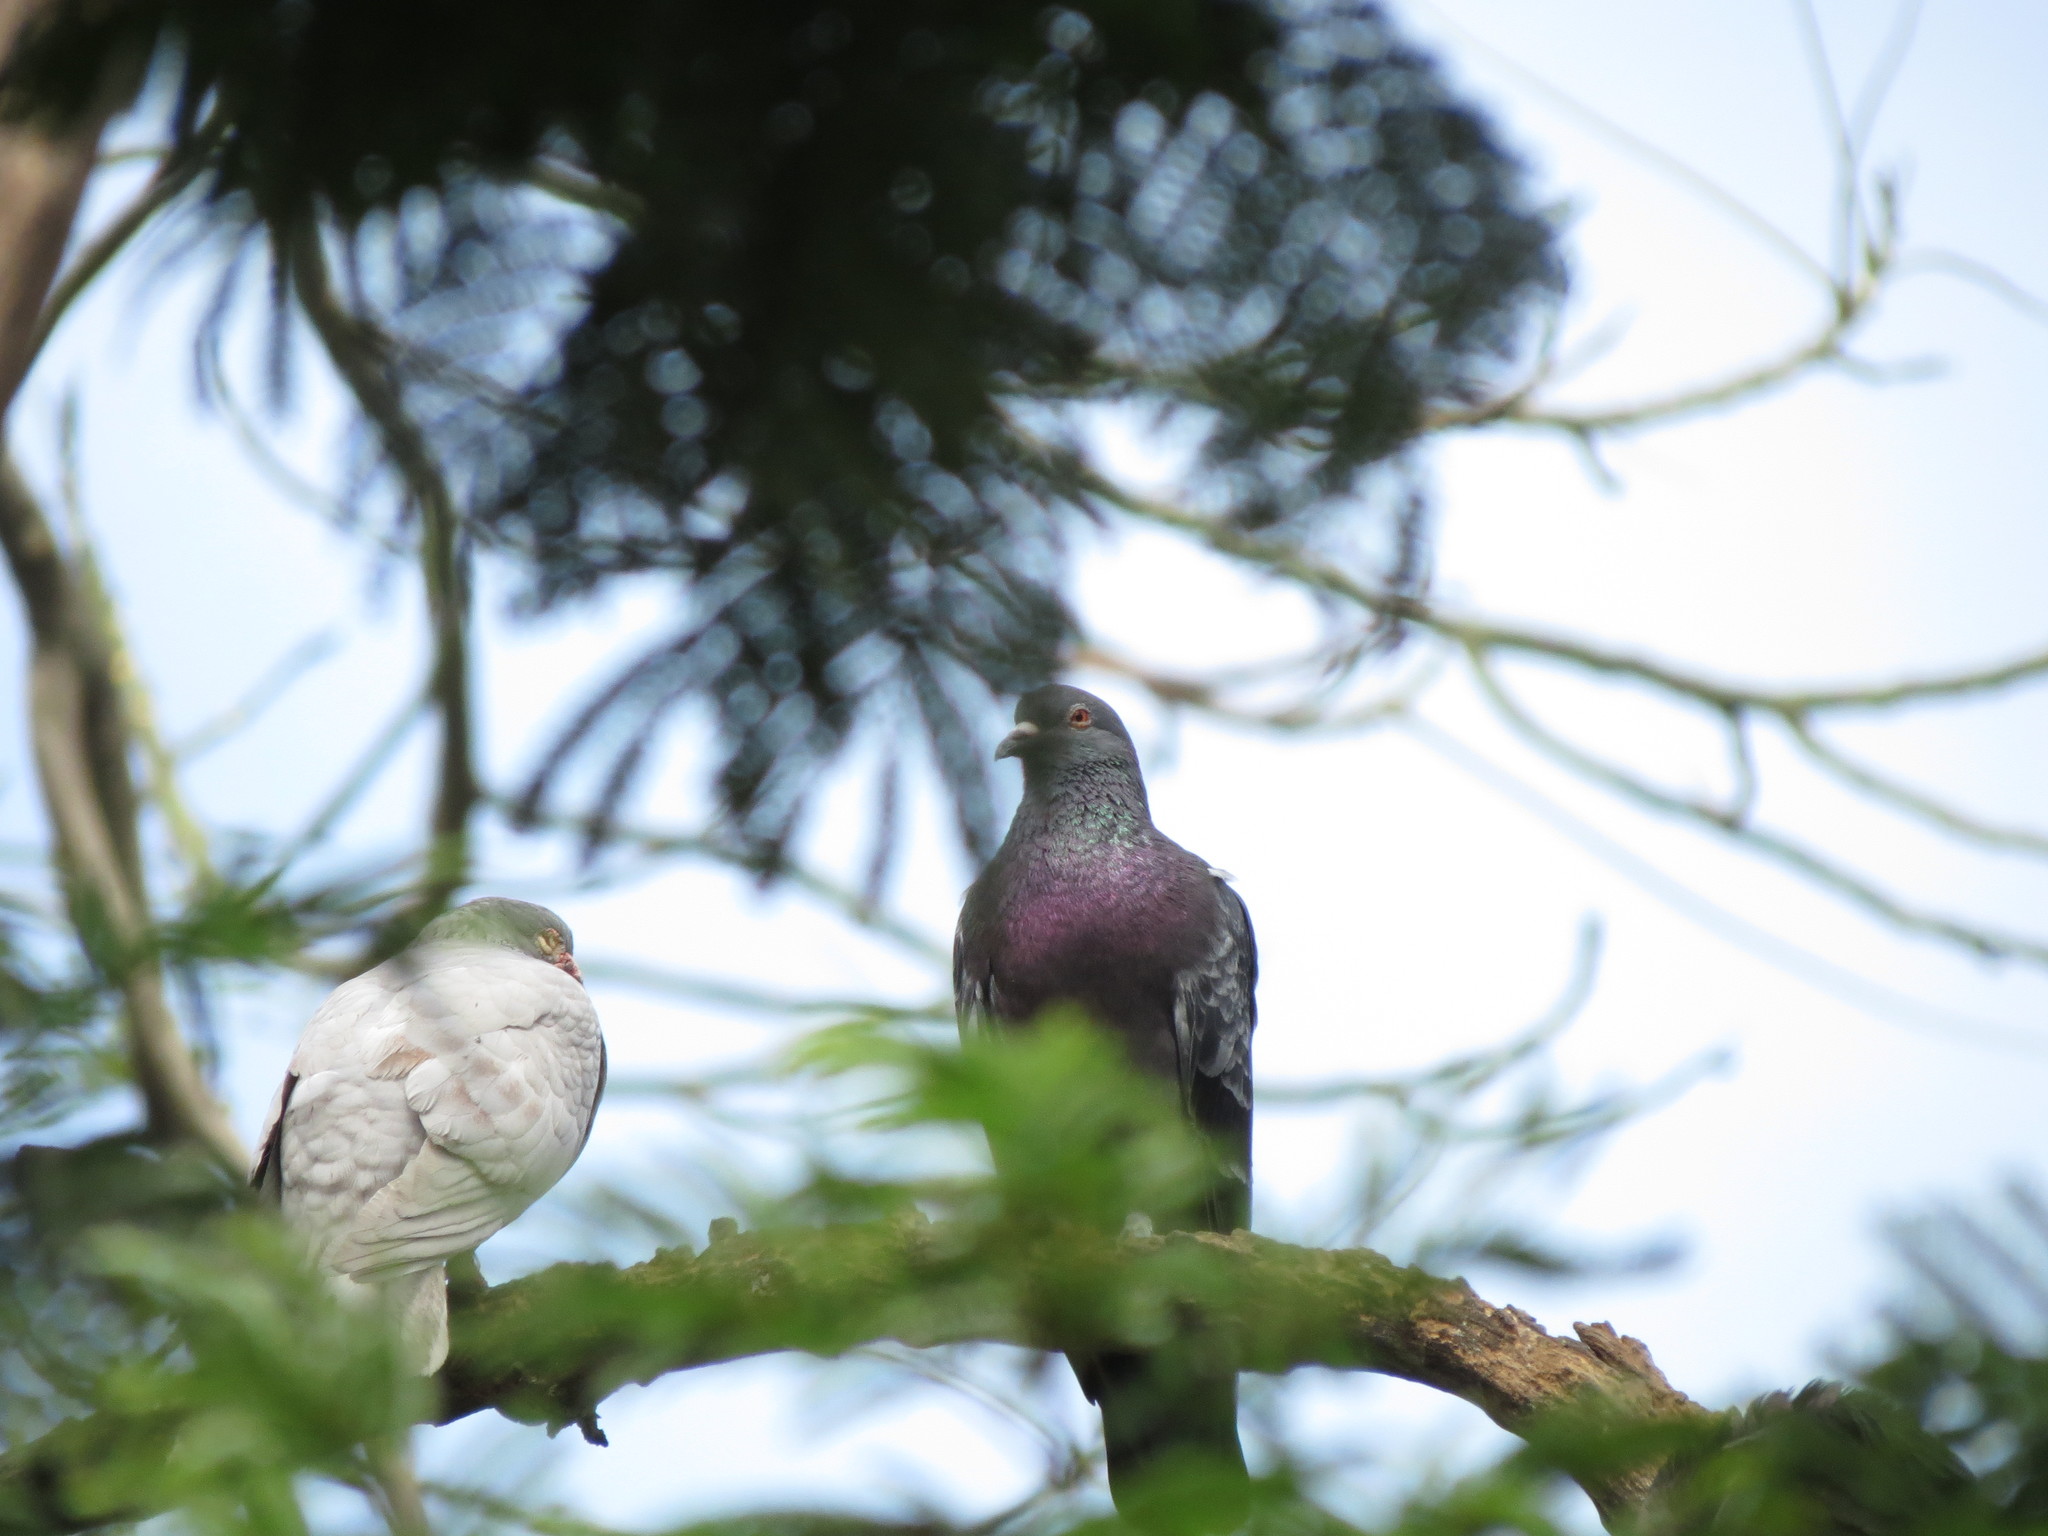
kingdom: Animalia
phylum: Chordata
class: Aves
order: Columbiformes
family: Columbidae
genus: Columba
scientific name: Columba livia
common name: Rock pigeon
